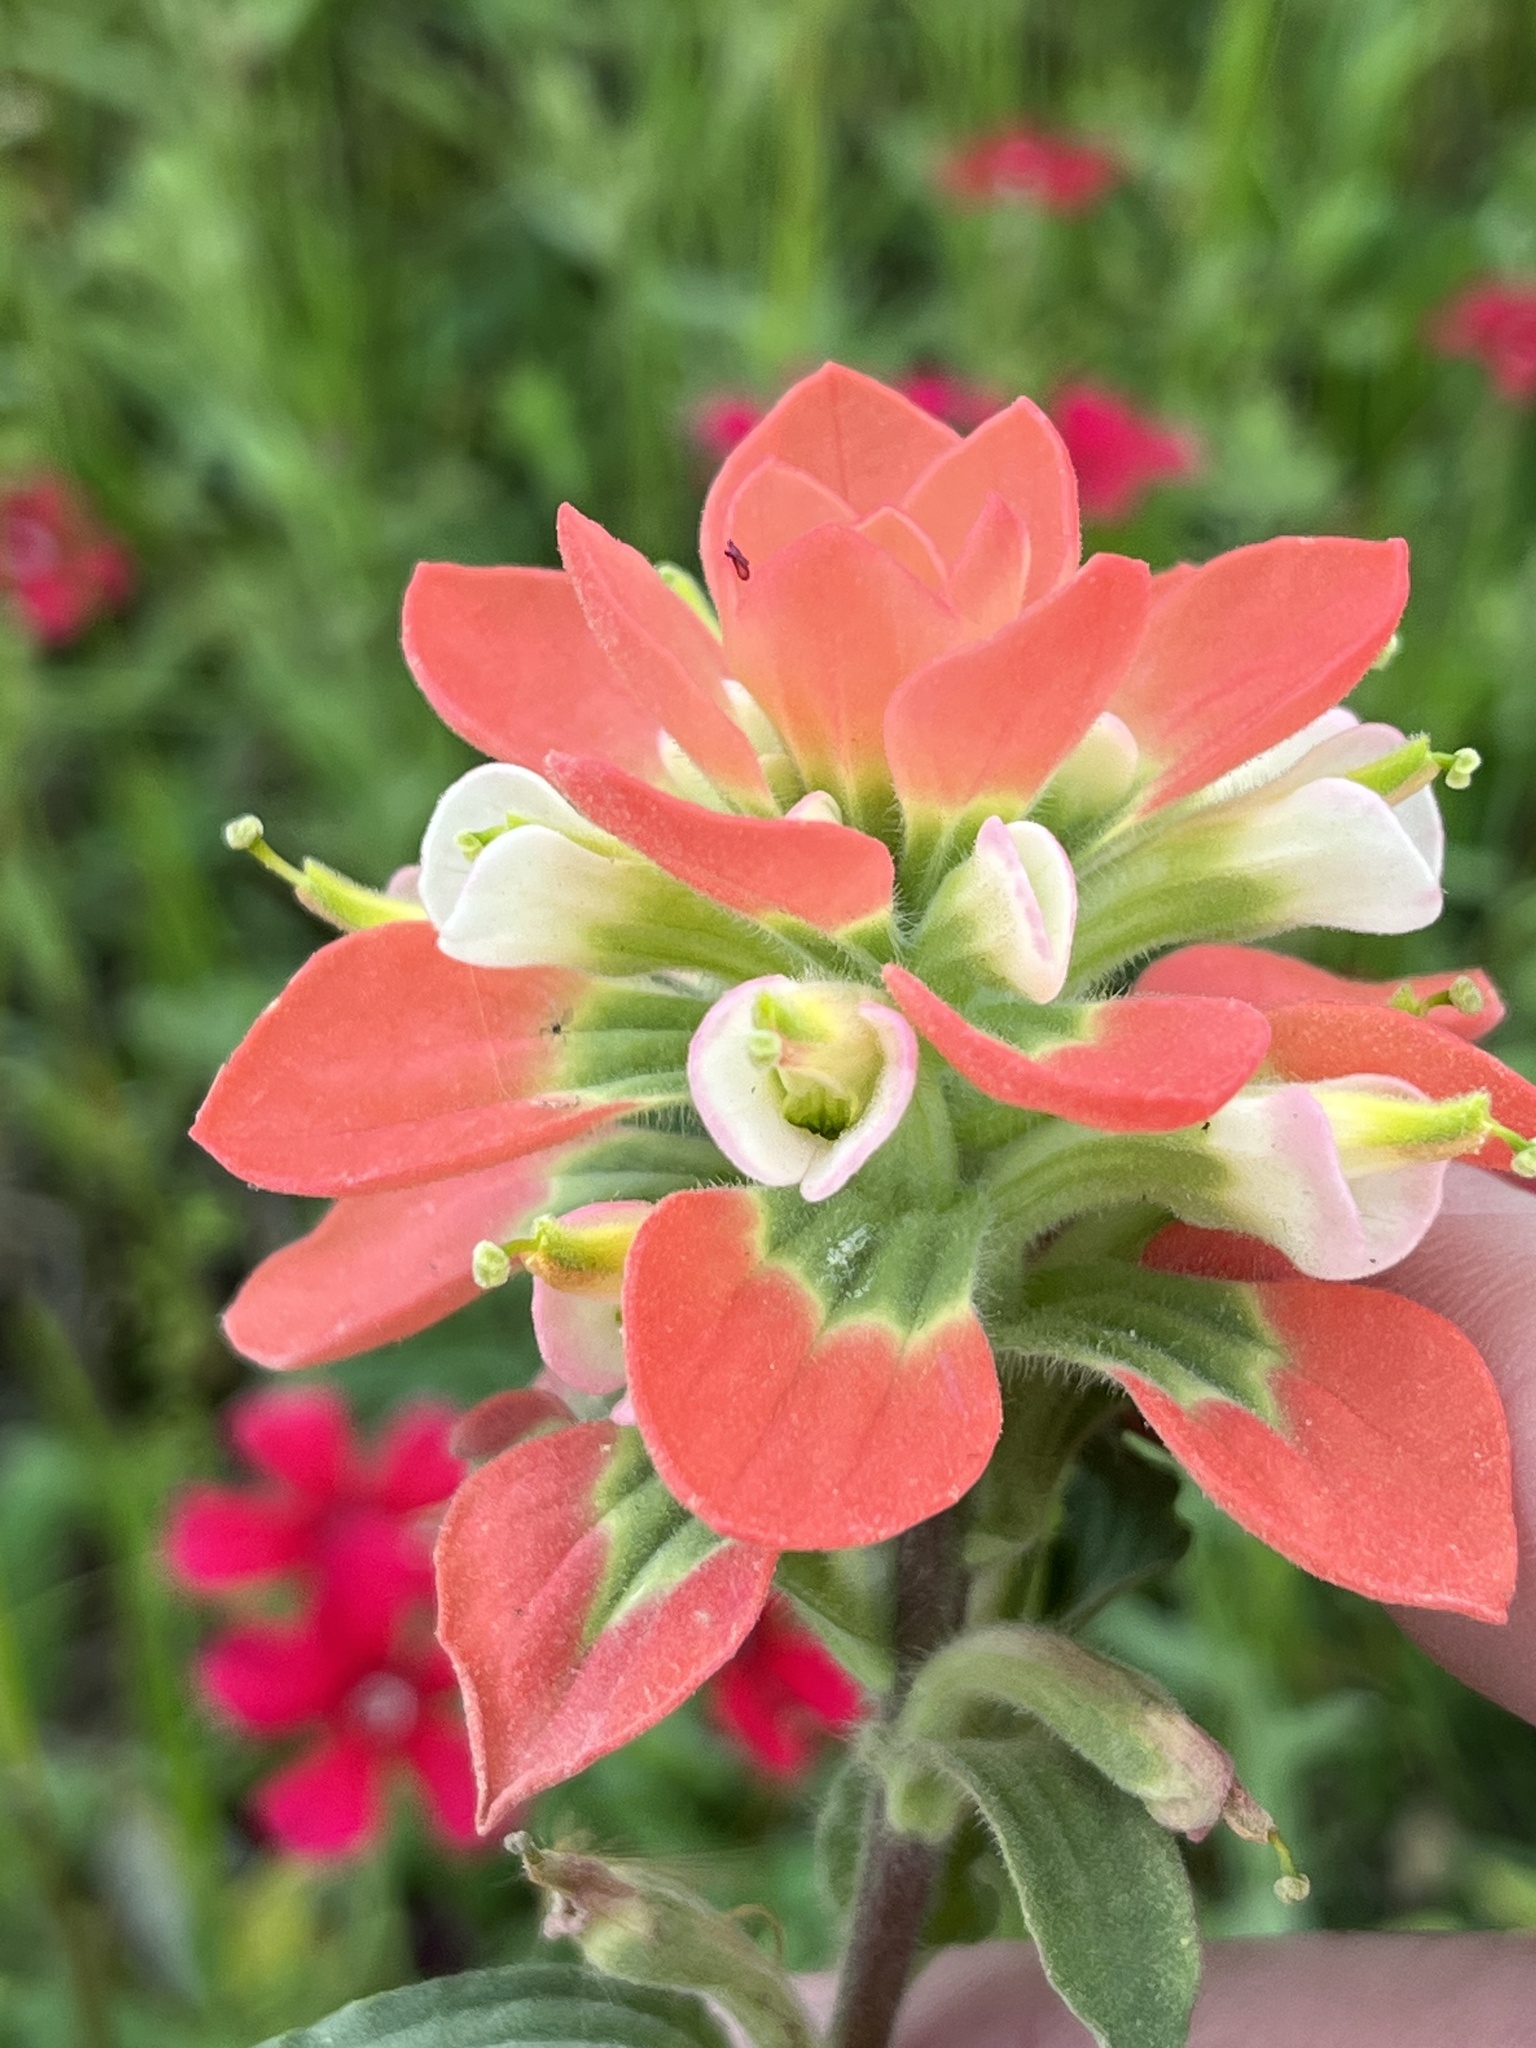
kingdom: Plantae
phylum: Tracheophyta
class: Magnoliopsida
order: Lamiales
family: Orobanchaceae
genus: Castilleja
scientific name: Castilleja indivisa
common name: Texas paintbrush
